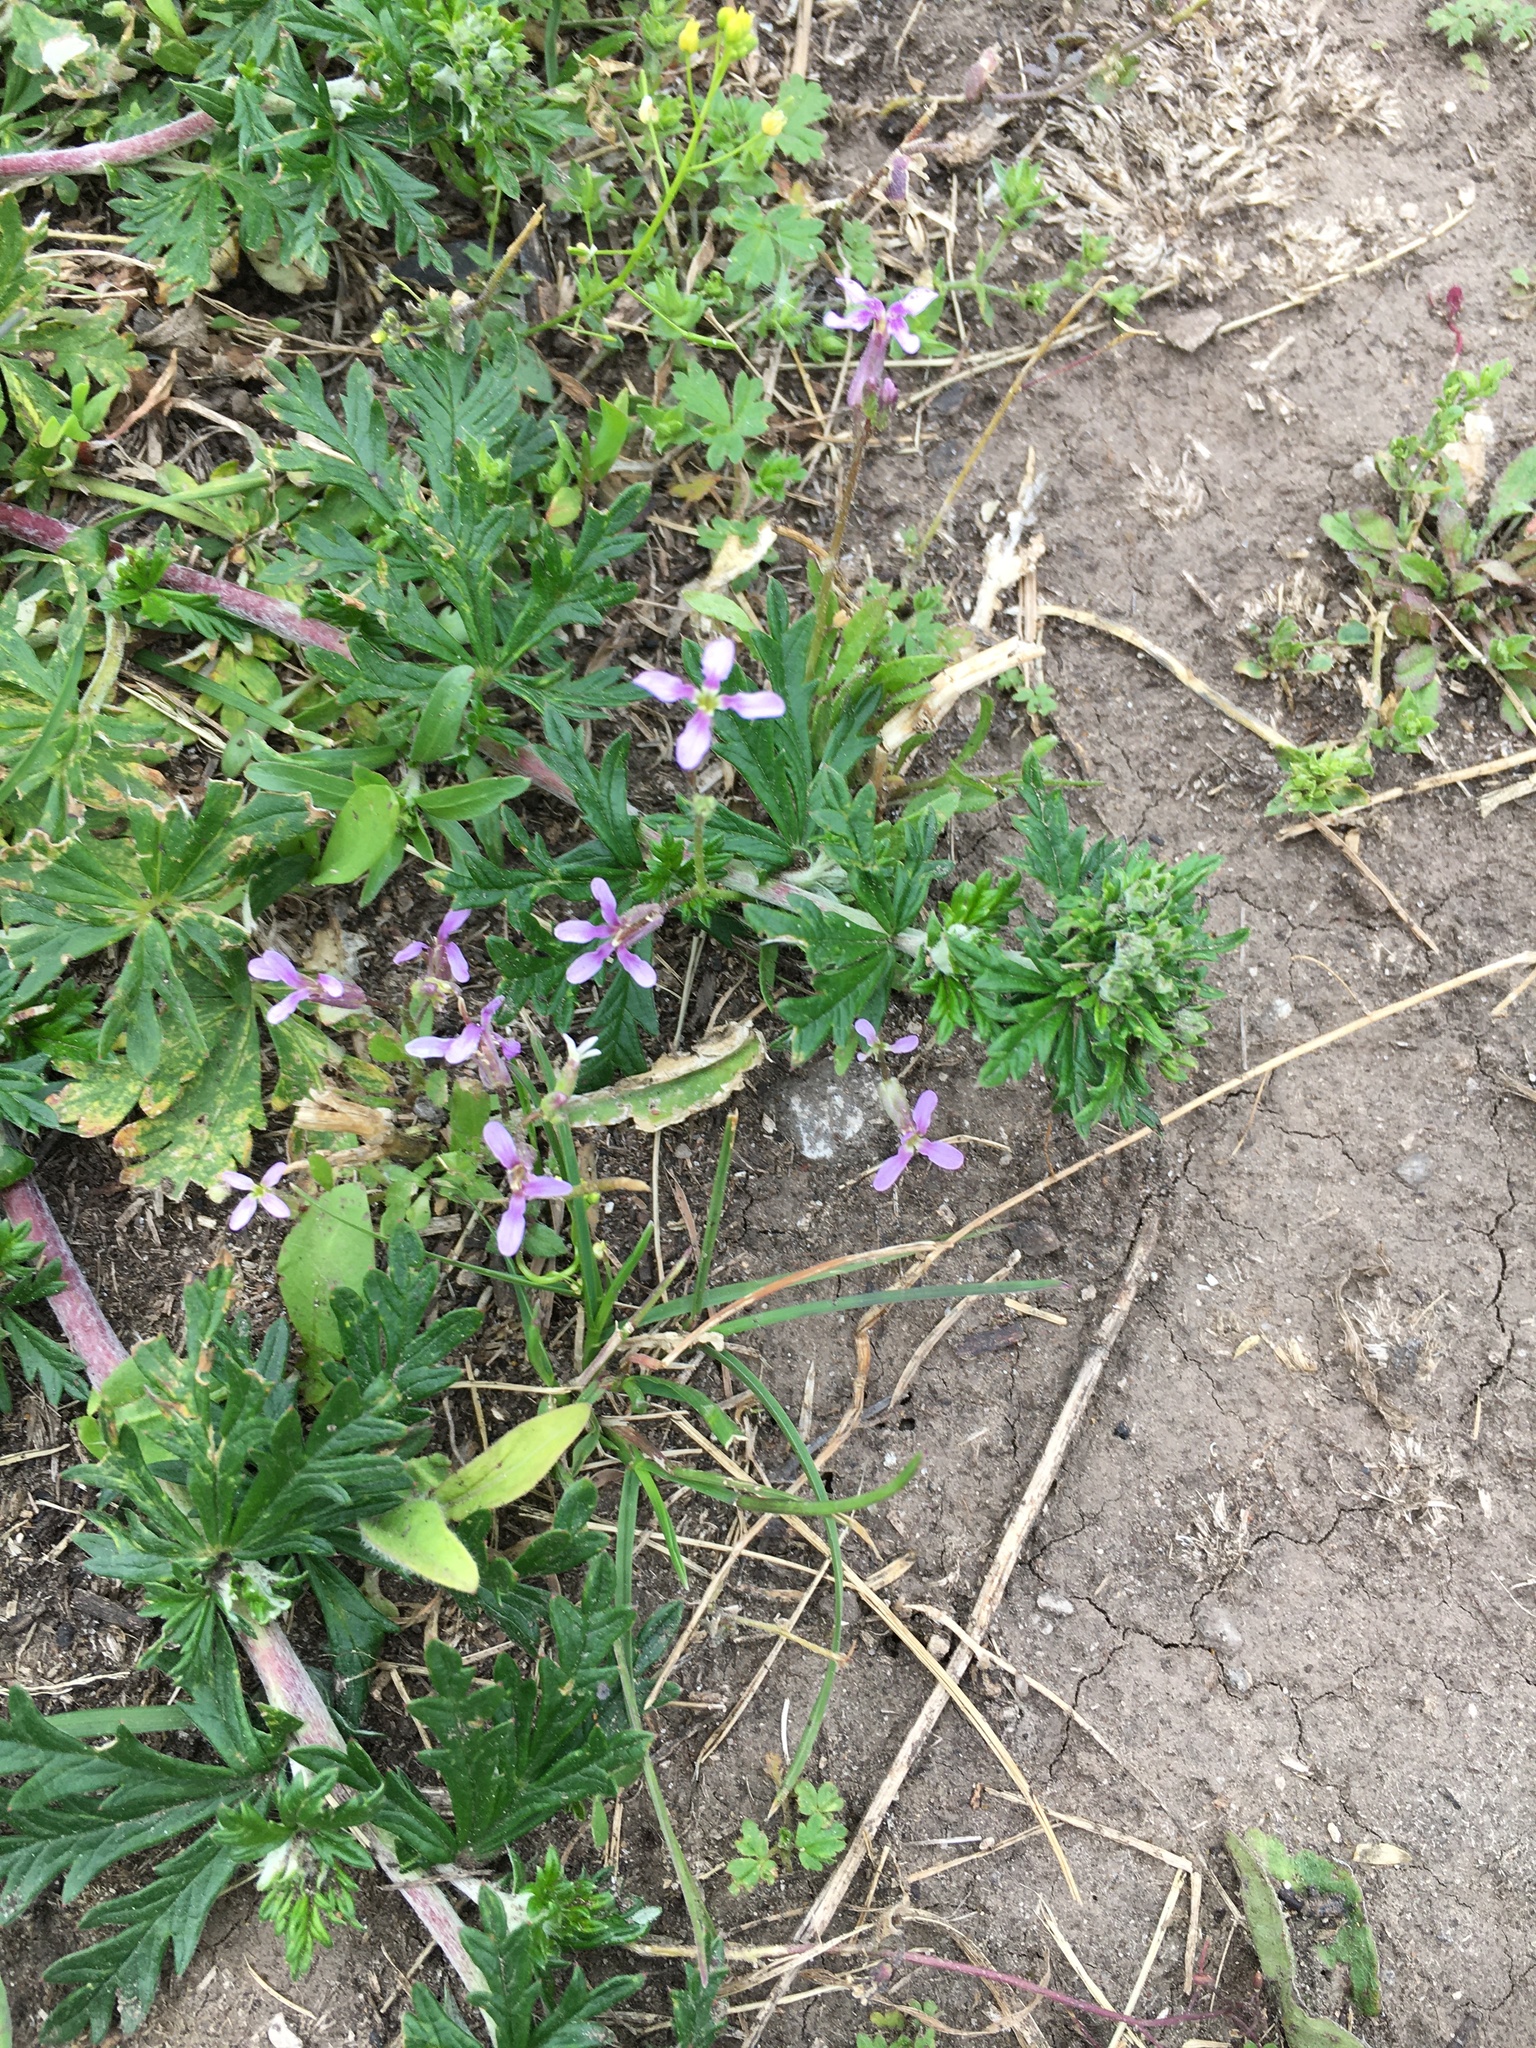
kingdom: Plantae
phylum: Tracheophyta
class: Magnoliopsida
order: Brassicales
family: Brassicaceae
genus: Chorispora
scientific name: Chorispora tenella
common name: Crossflower
